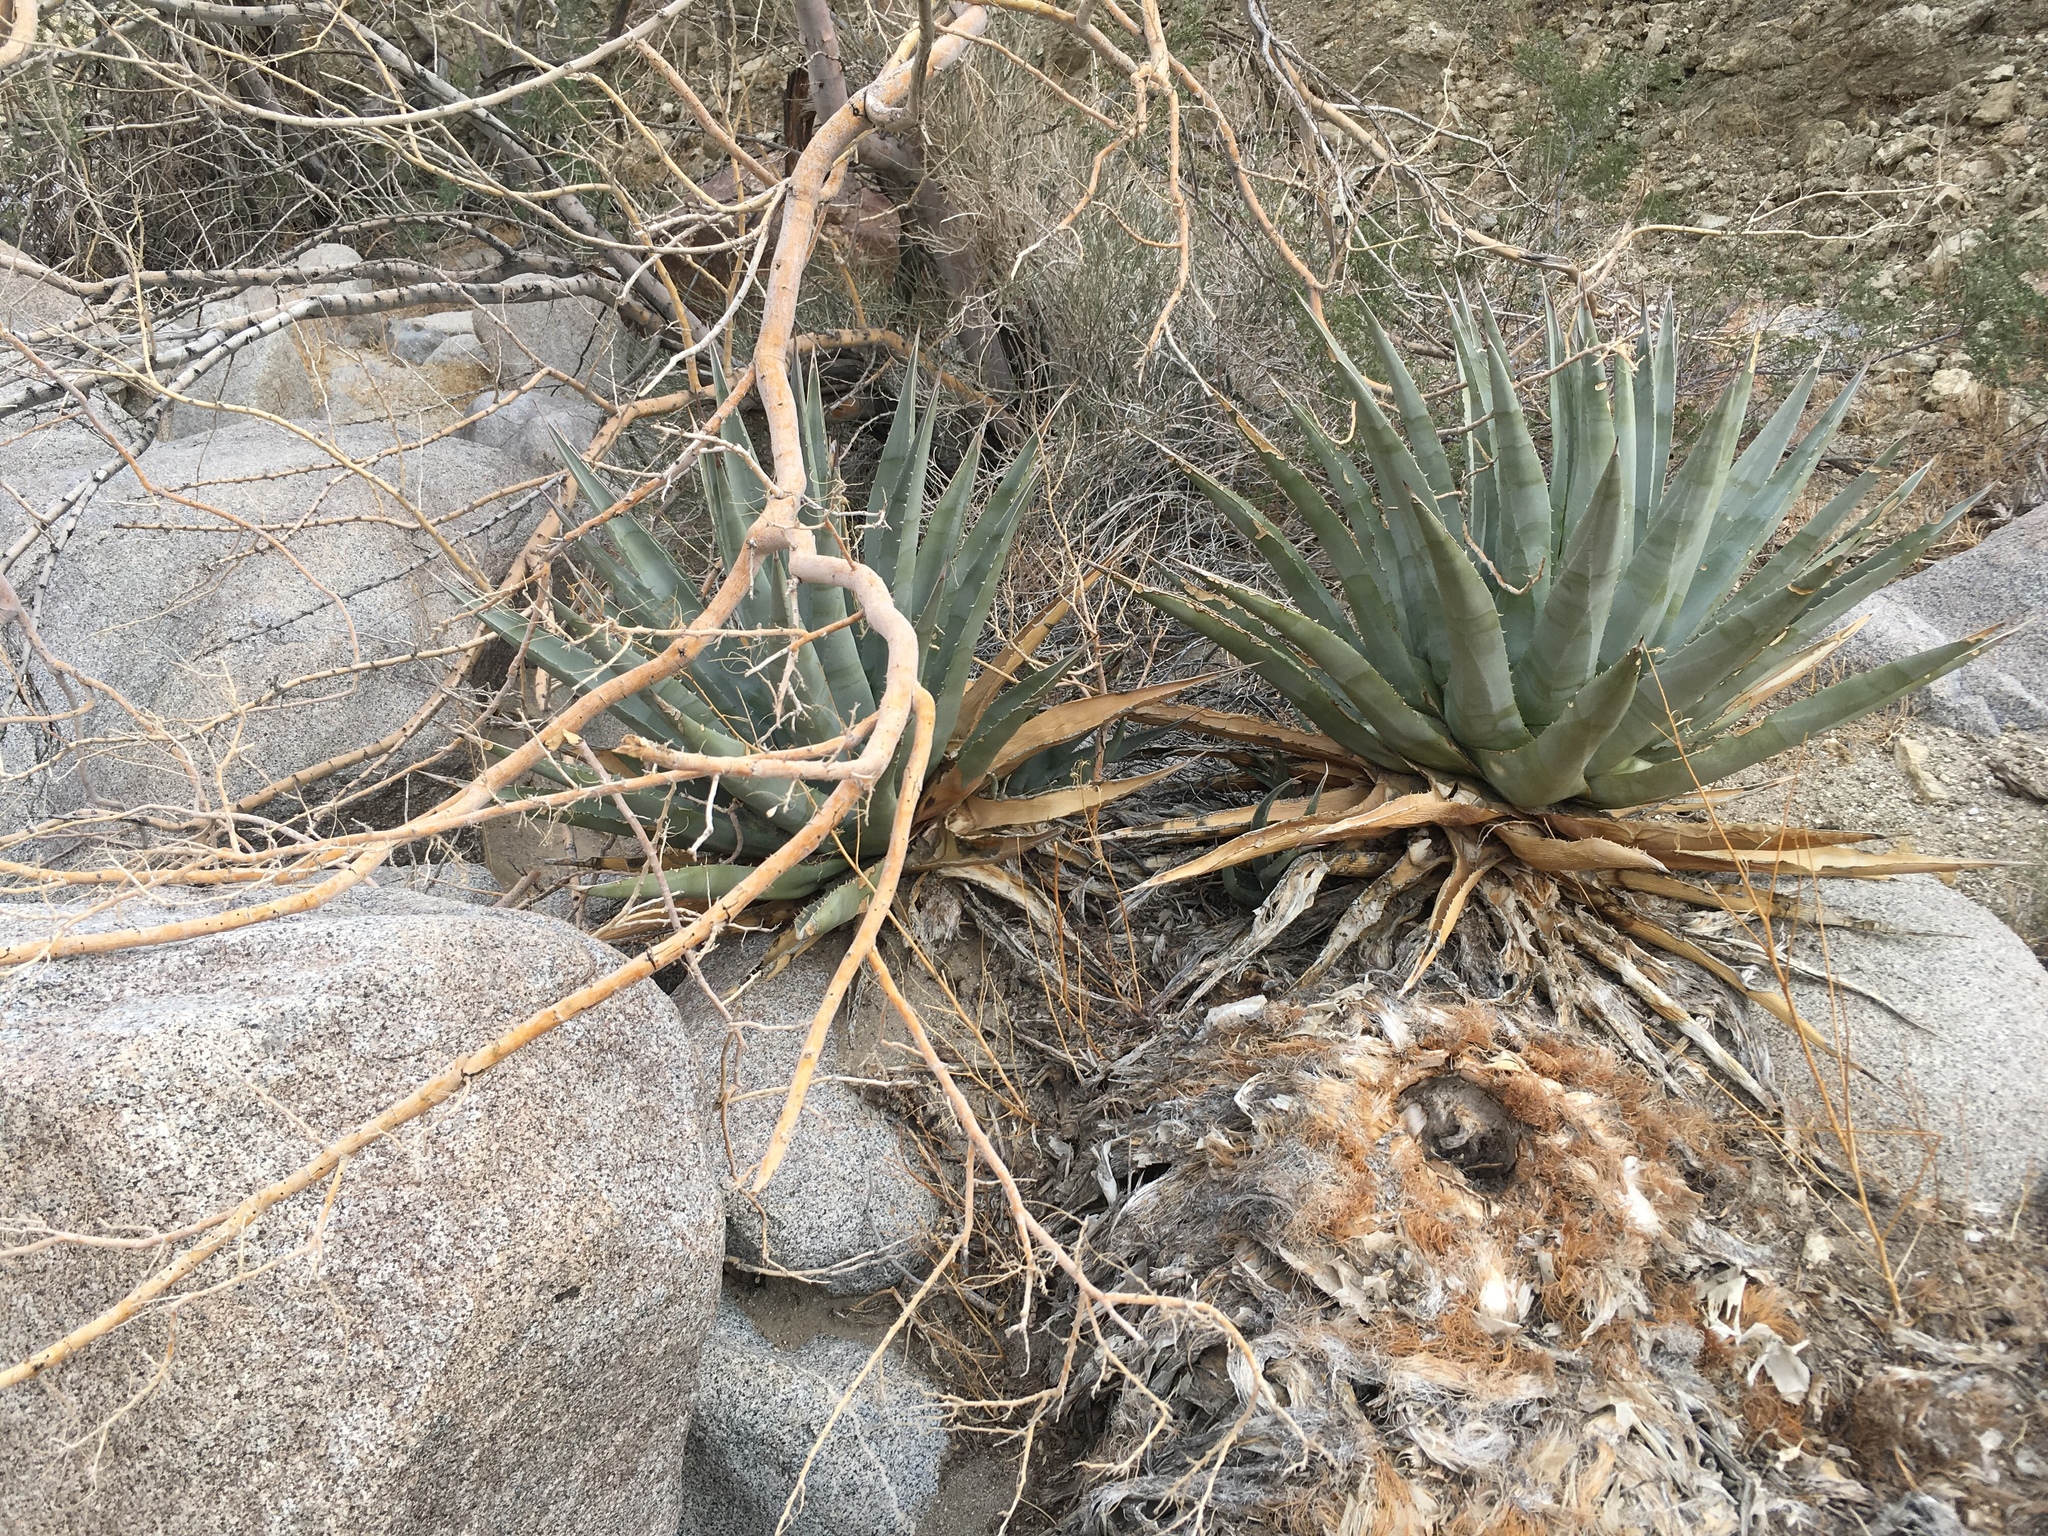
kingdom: Plantae
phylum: Tracheophyta
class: Liliopsida
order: Asparagales
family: Asparagaceae
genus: Agave
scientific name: Agave deserti
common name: Desert agave
